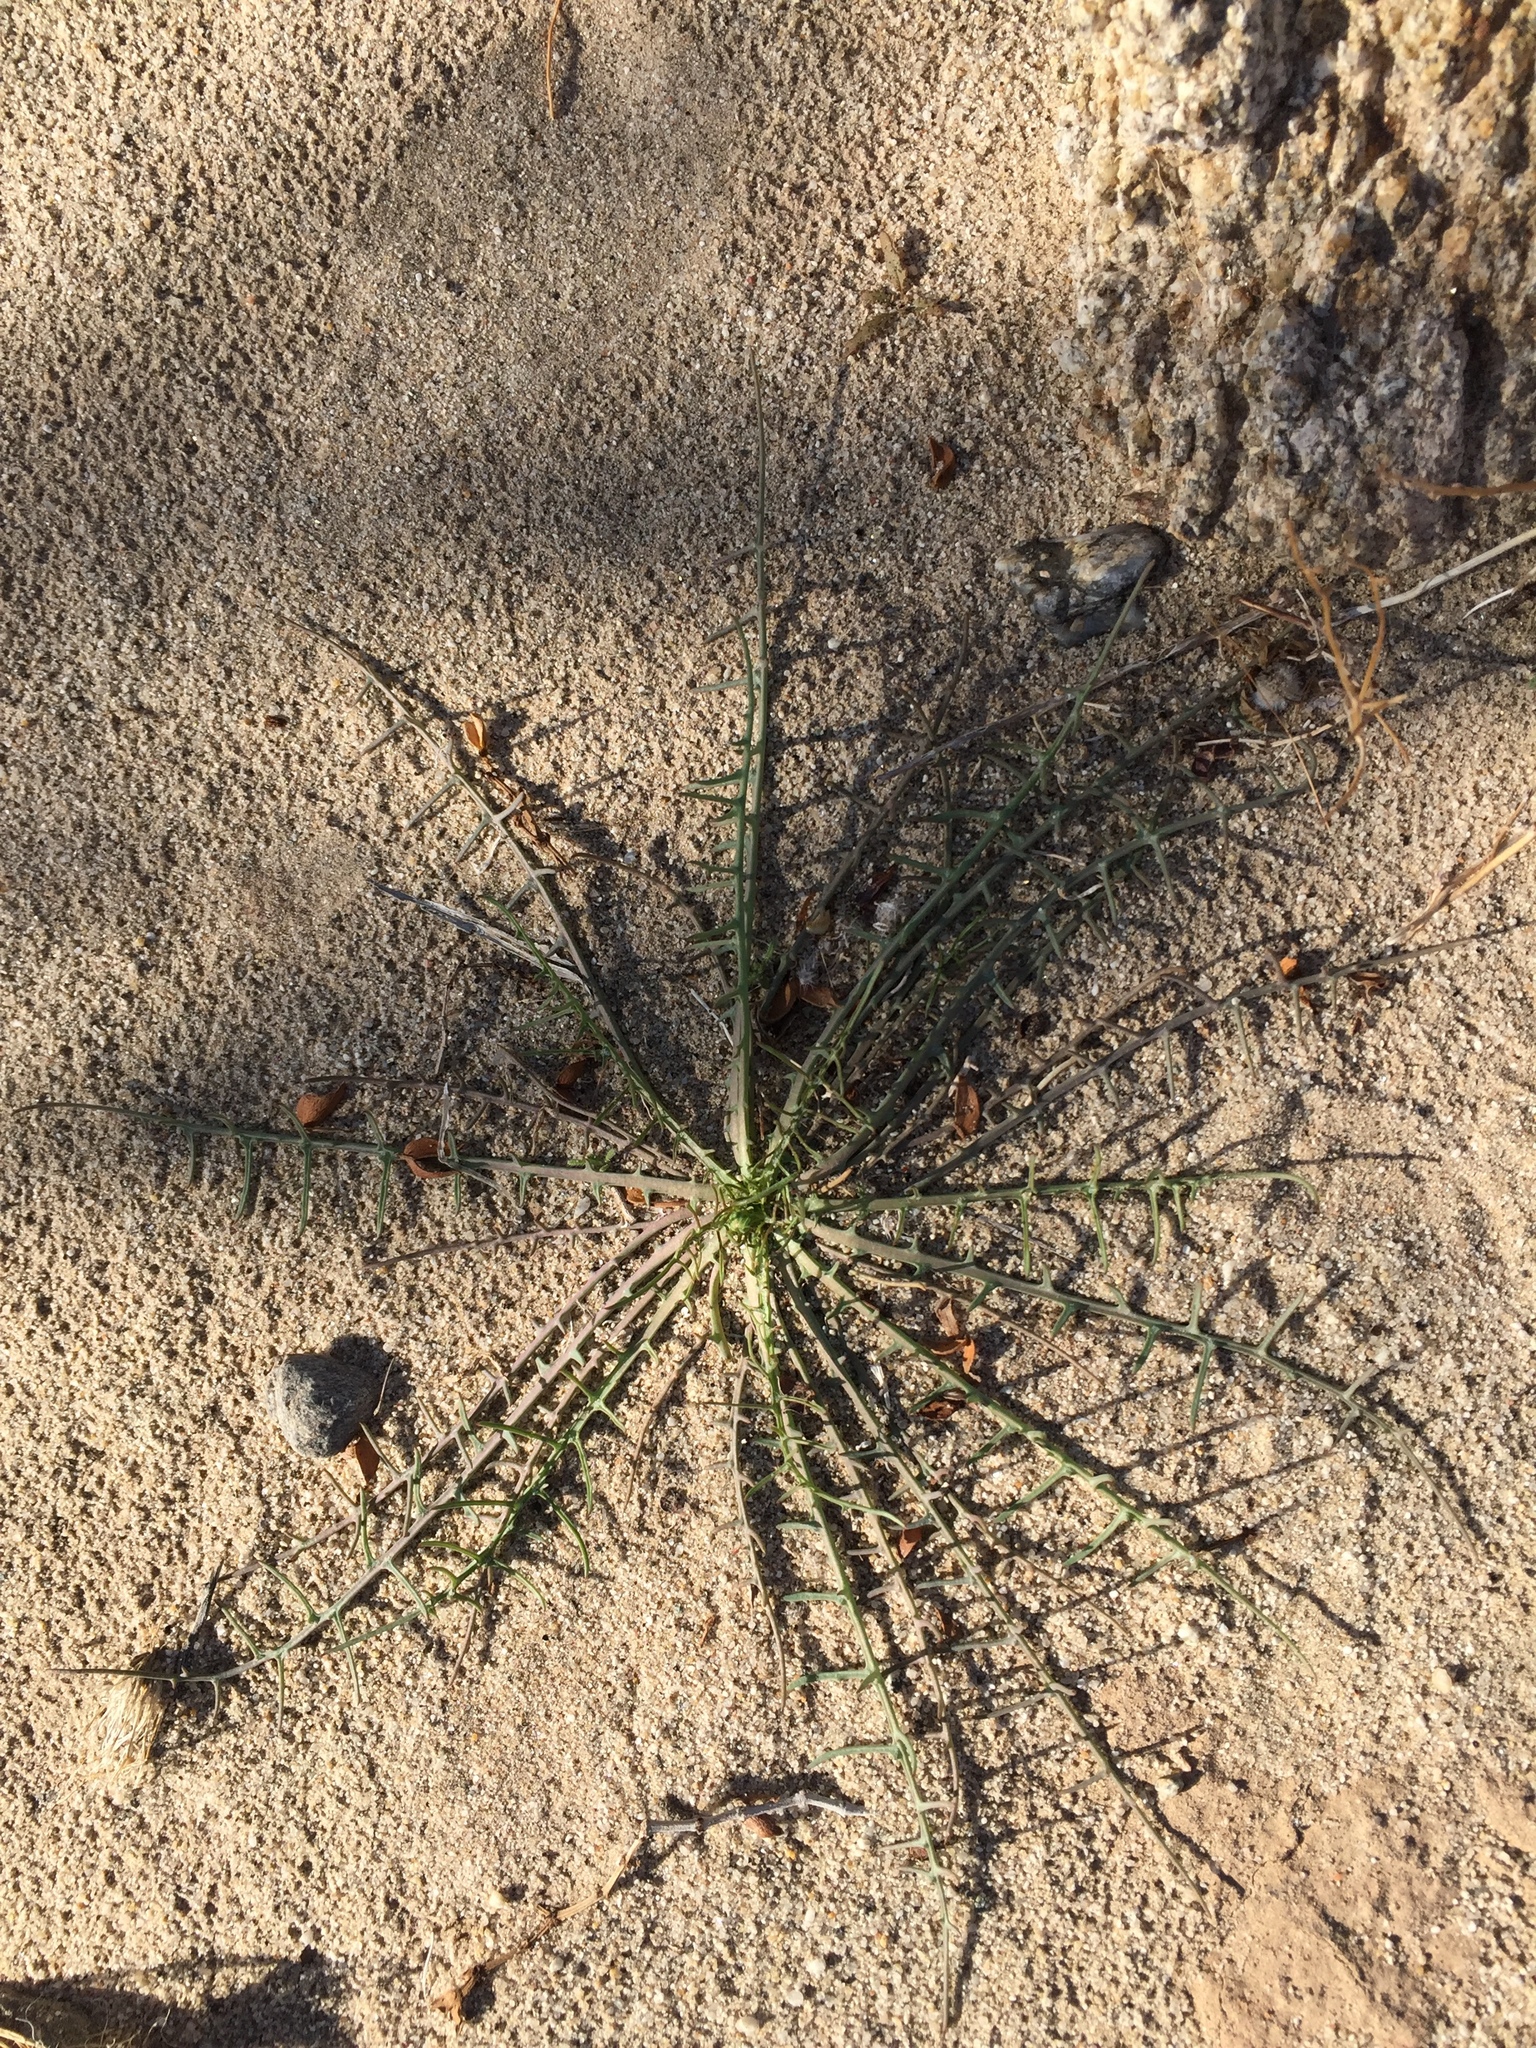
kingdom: Plantae
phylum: Tracheophyta
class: Magnoliopsida
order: Asterales
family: Asteraceae
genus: Calycoseris
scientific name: Calycoseris wrightii
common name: White tackstem
